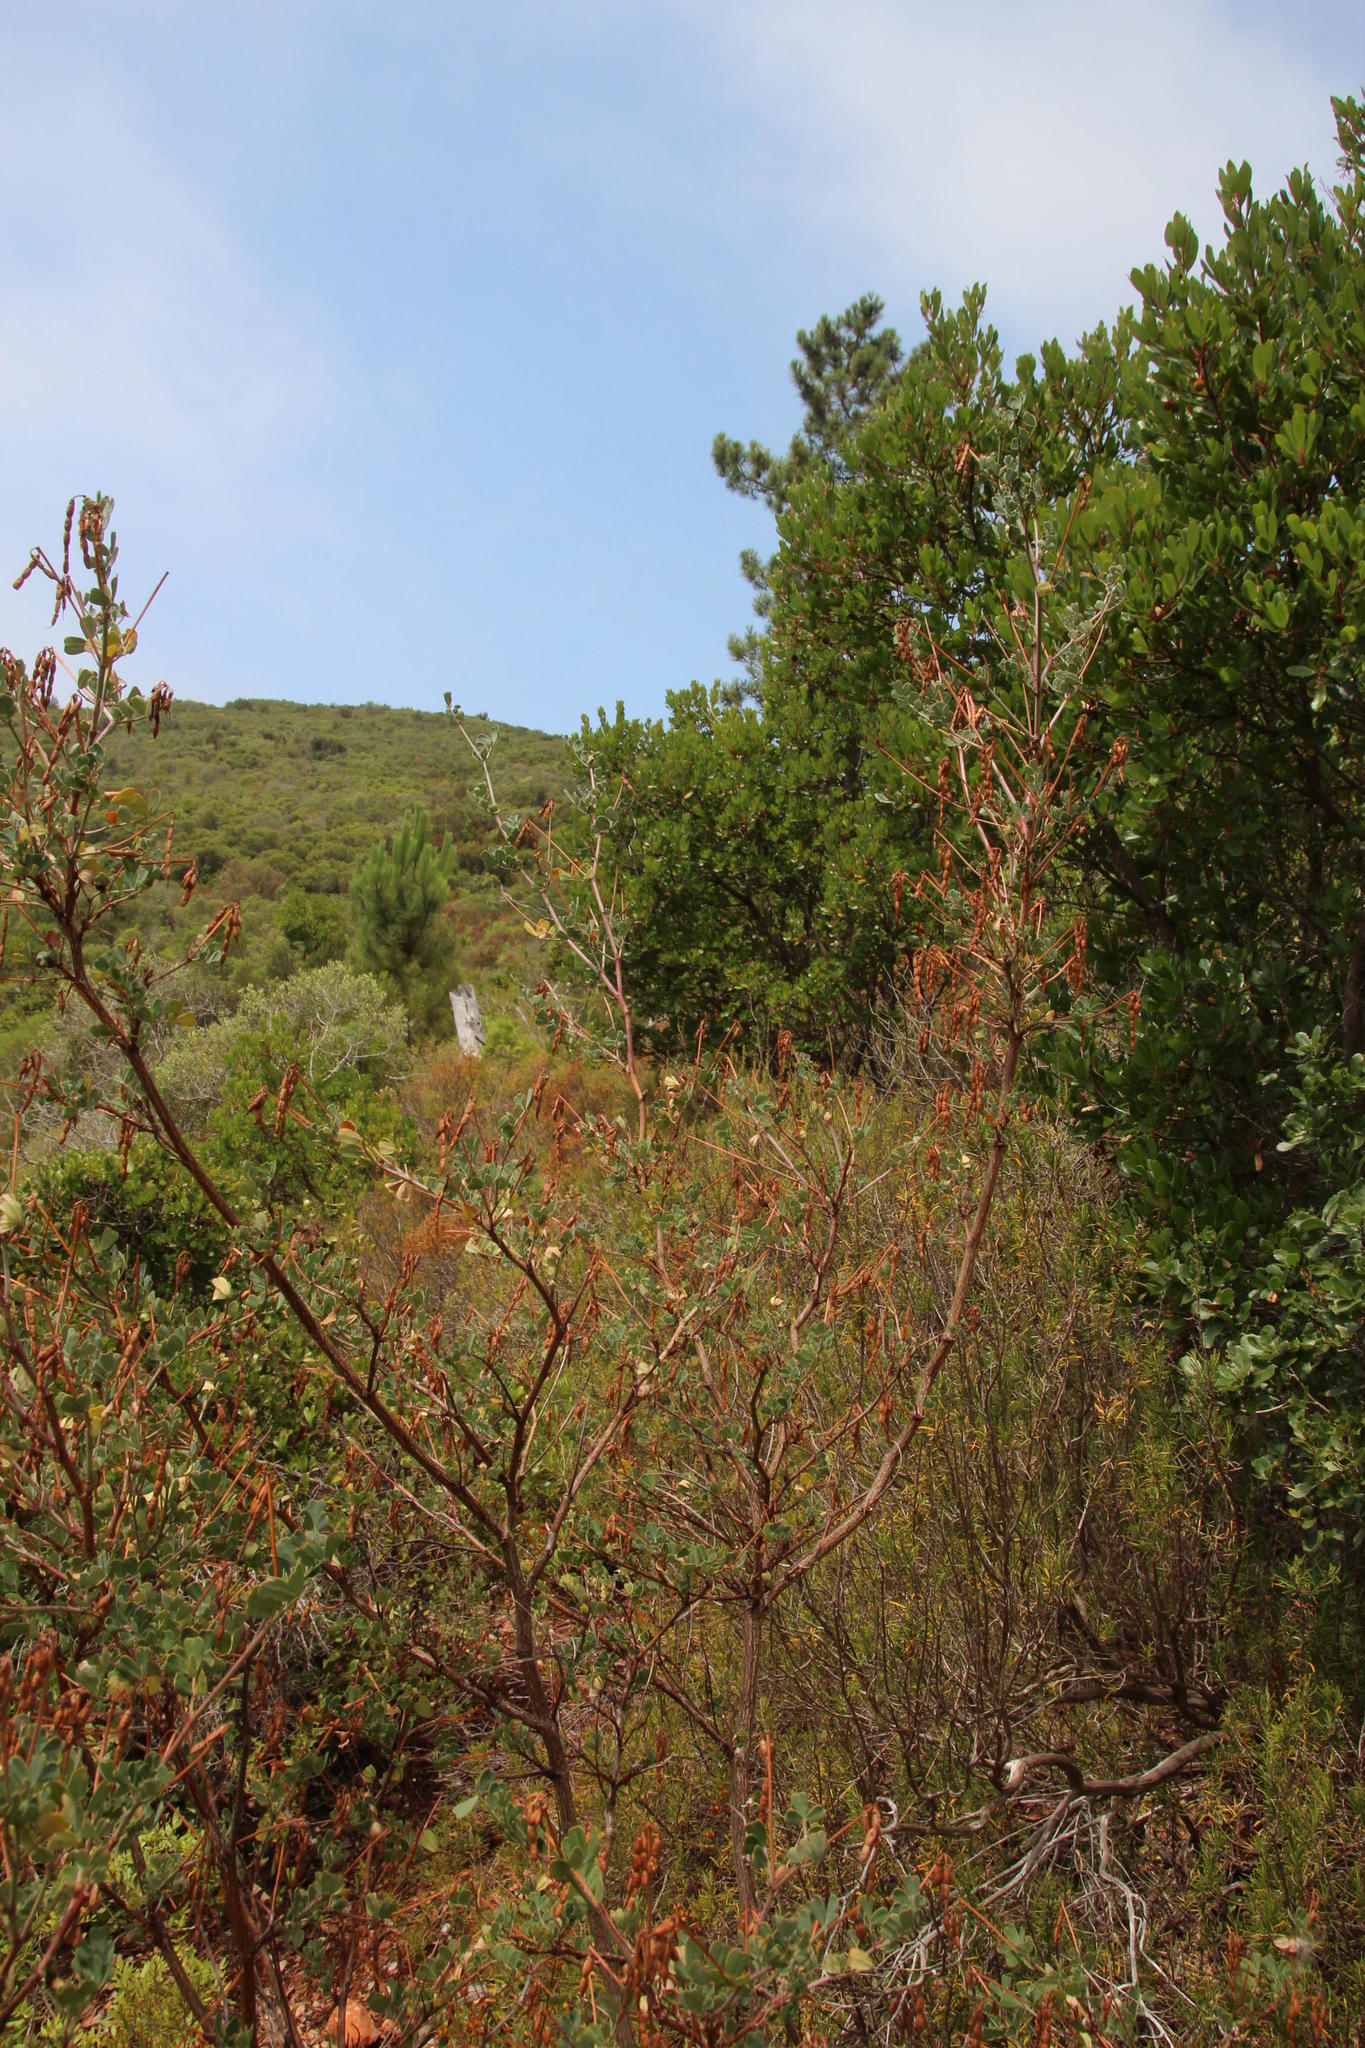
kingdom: Plantae
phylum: Tracheophyta
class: Magnoliopsida
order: Fabales
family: Fabaceae
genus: Coronilla
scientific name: Coronilla valentina
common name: Shrubby scorpion-vetch
